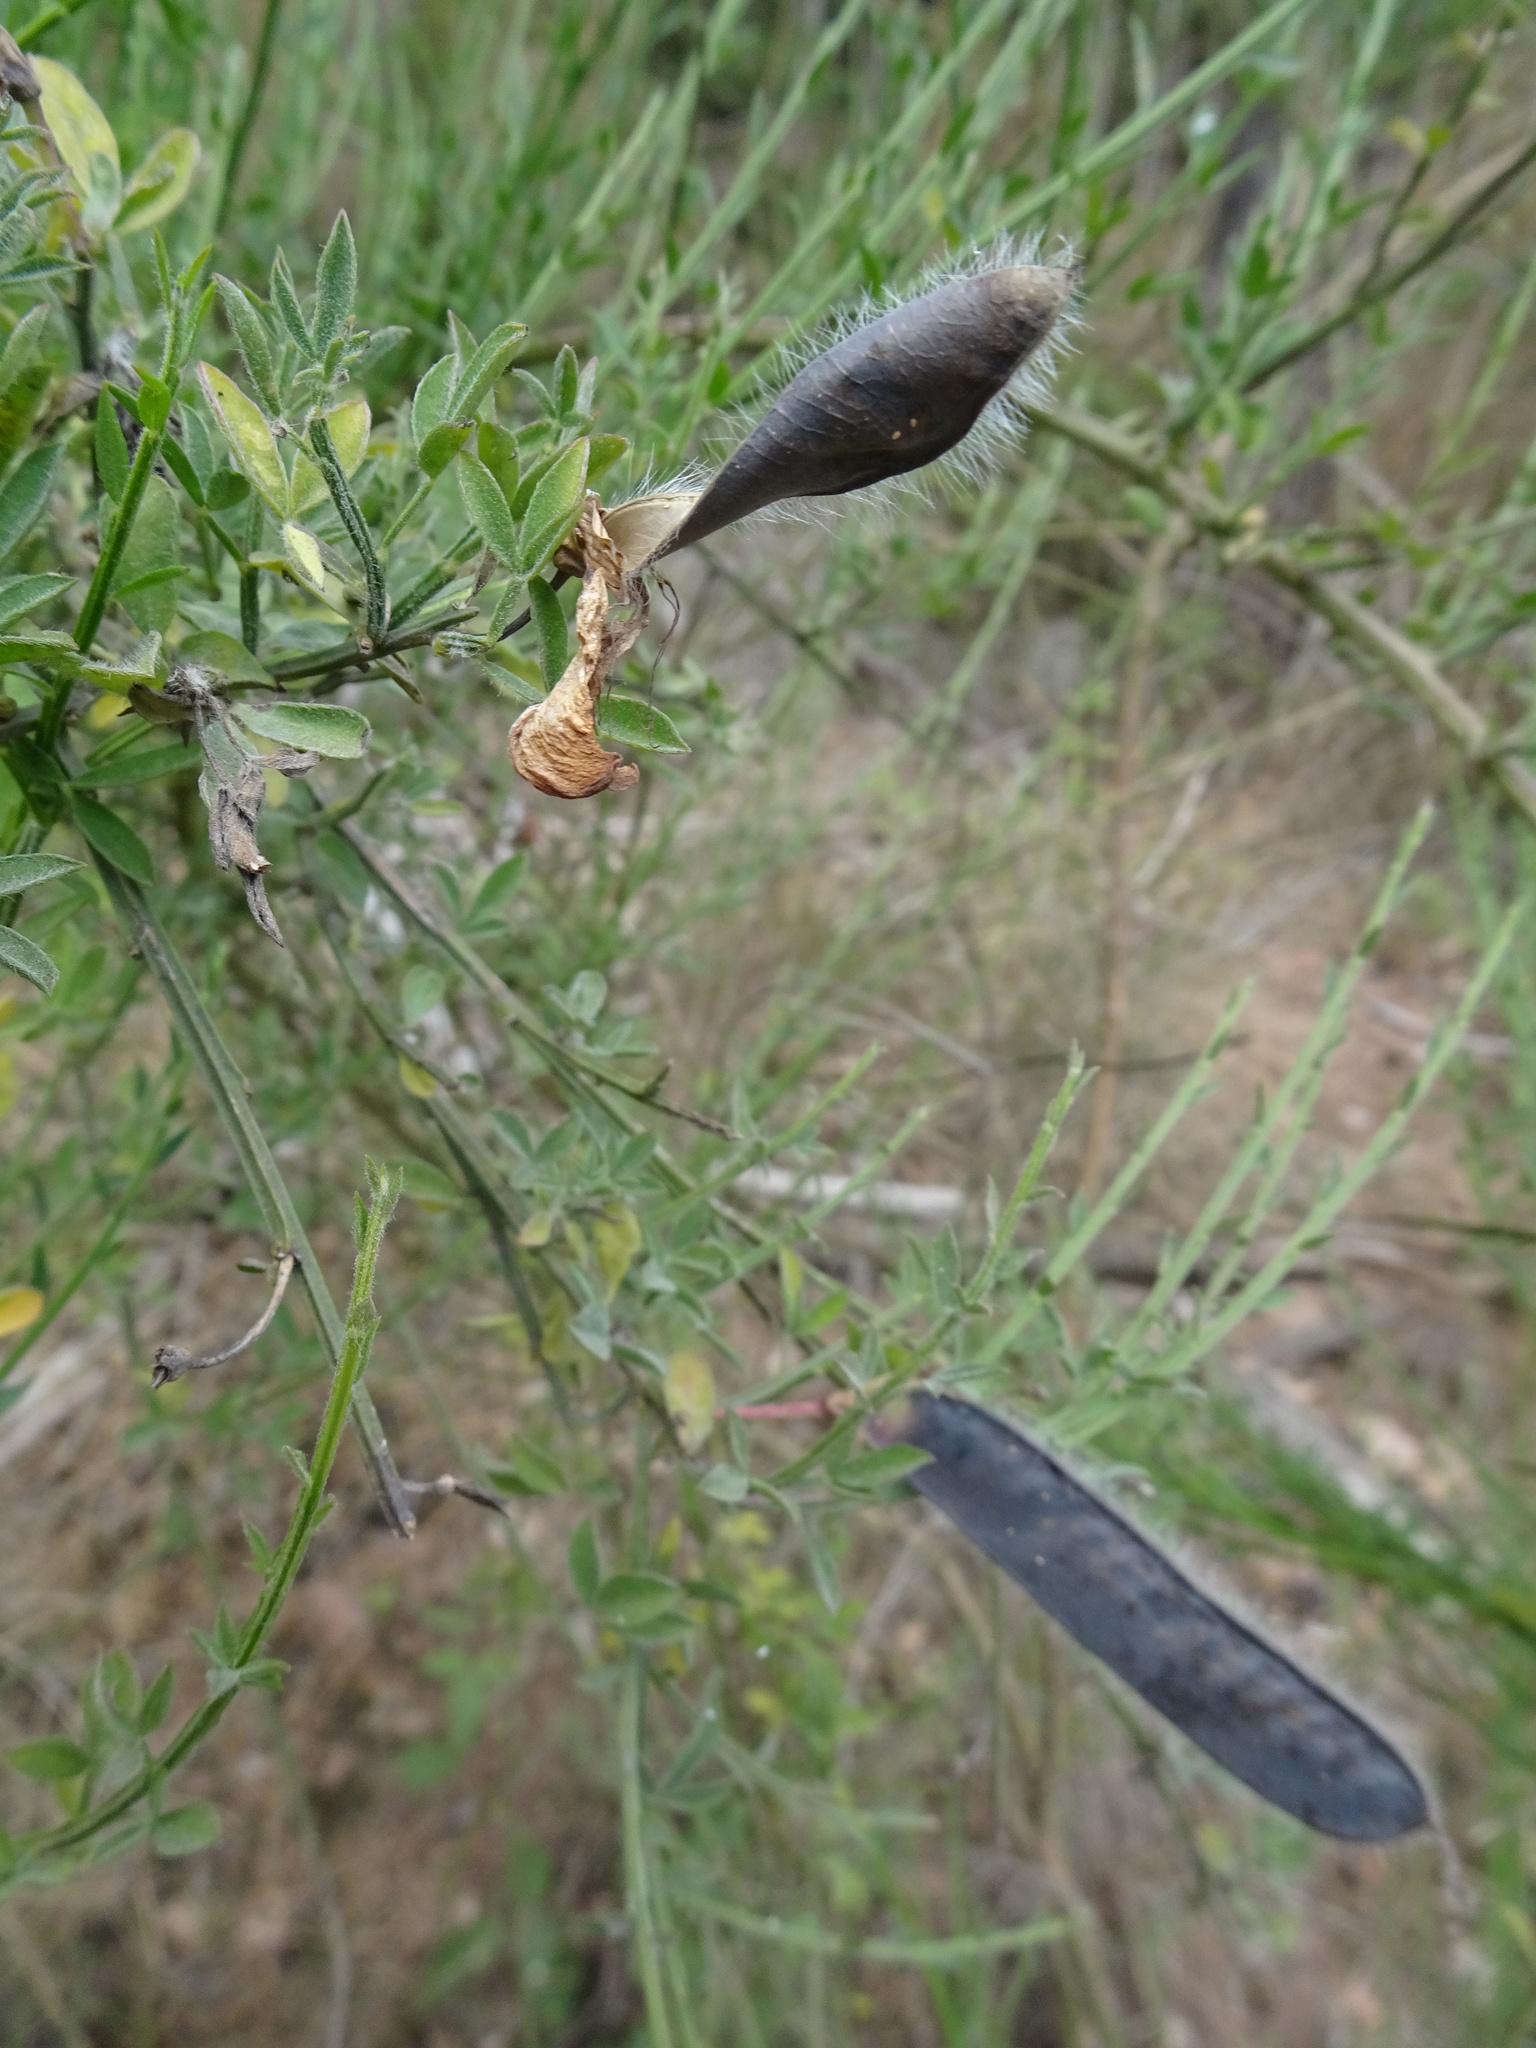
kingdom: Plantae
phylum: Tracheophyta
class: Magnoliopsida
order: Fabales
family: Fabaceae
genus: Cytisus
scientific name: Cytisus scoparius
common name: Scotch broom
